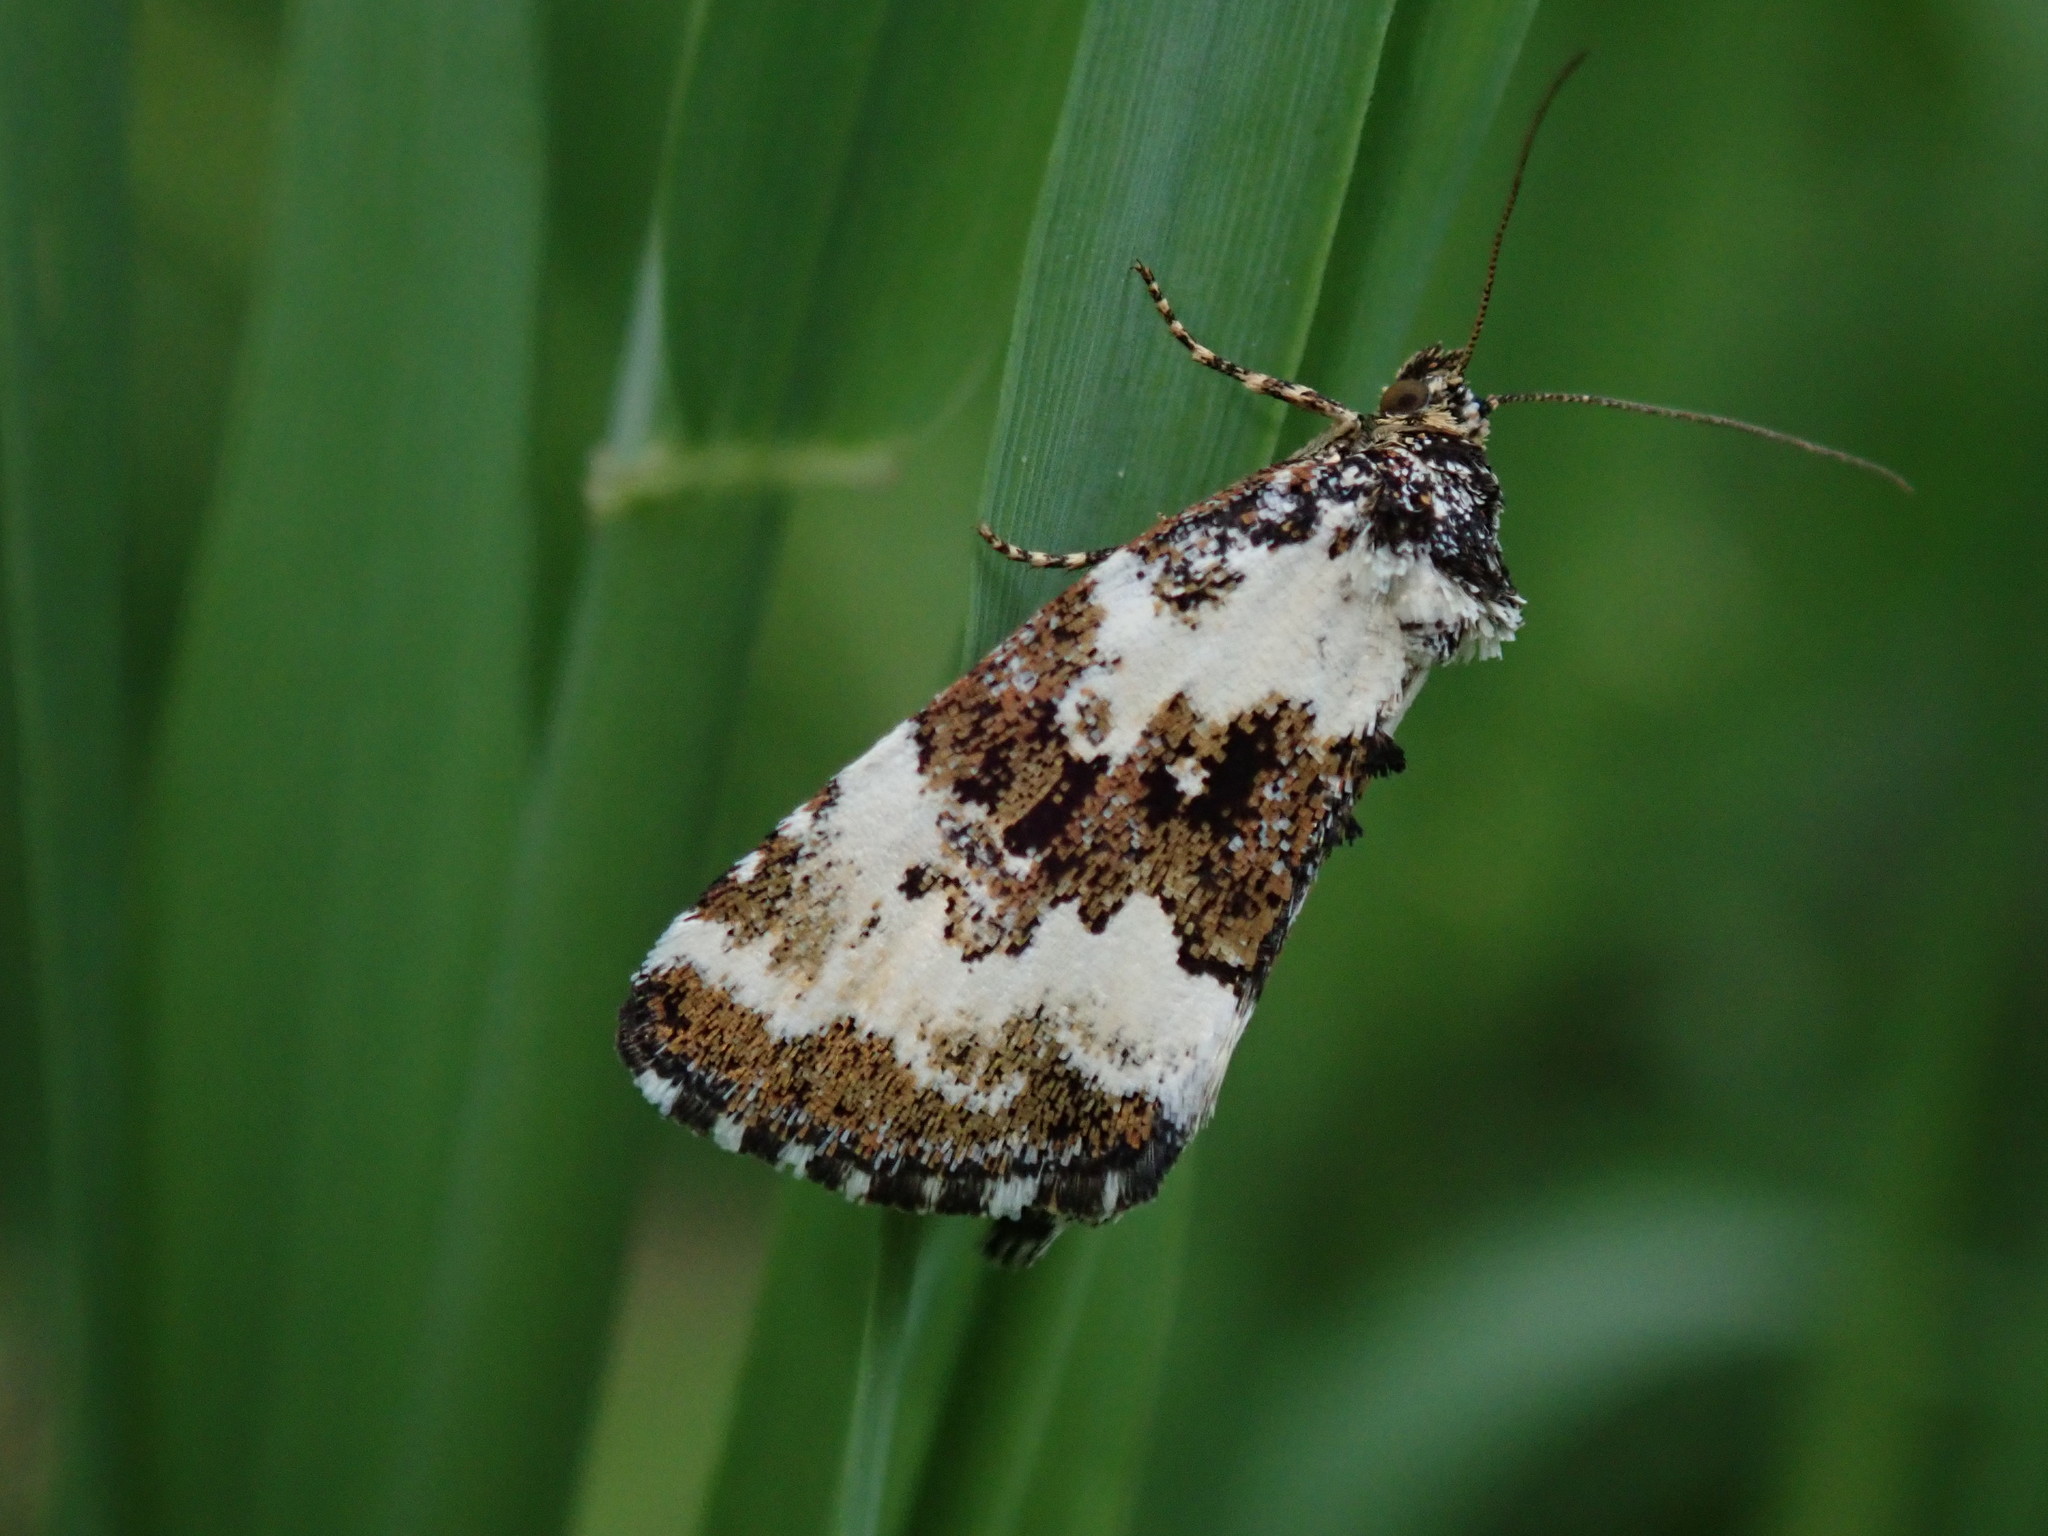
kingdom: Animalia
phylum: Arthropoda
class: Insecta
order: Lepidoptera
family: Noctuidae
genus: Deltote
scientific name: Deltote deceptoria
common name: Pretty marbled
